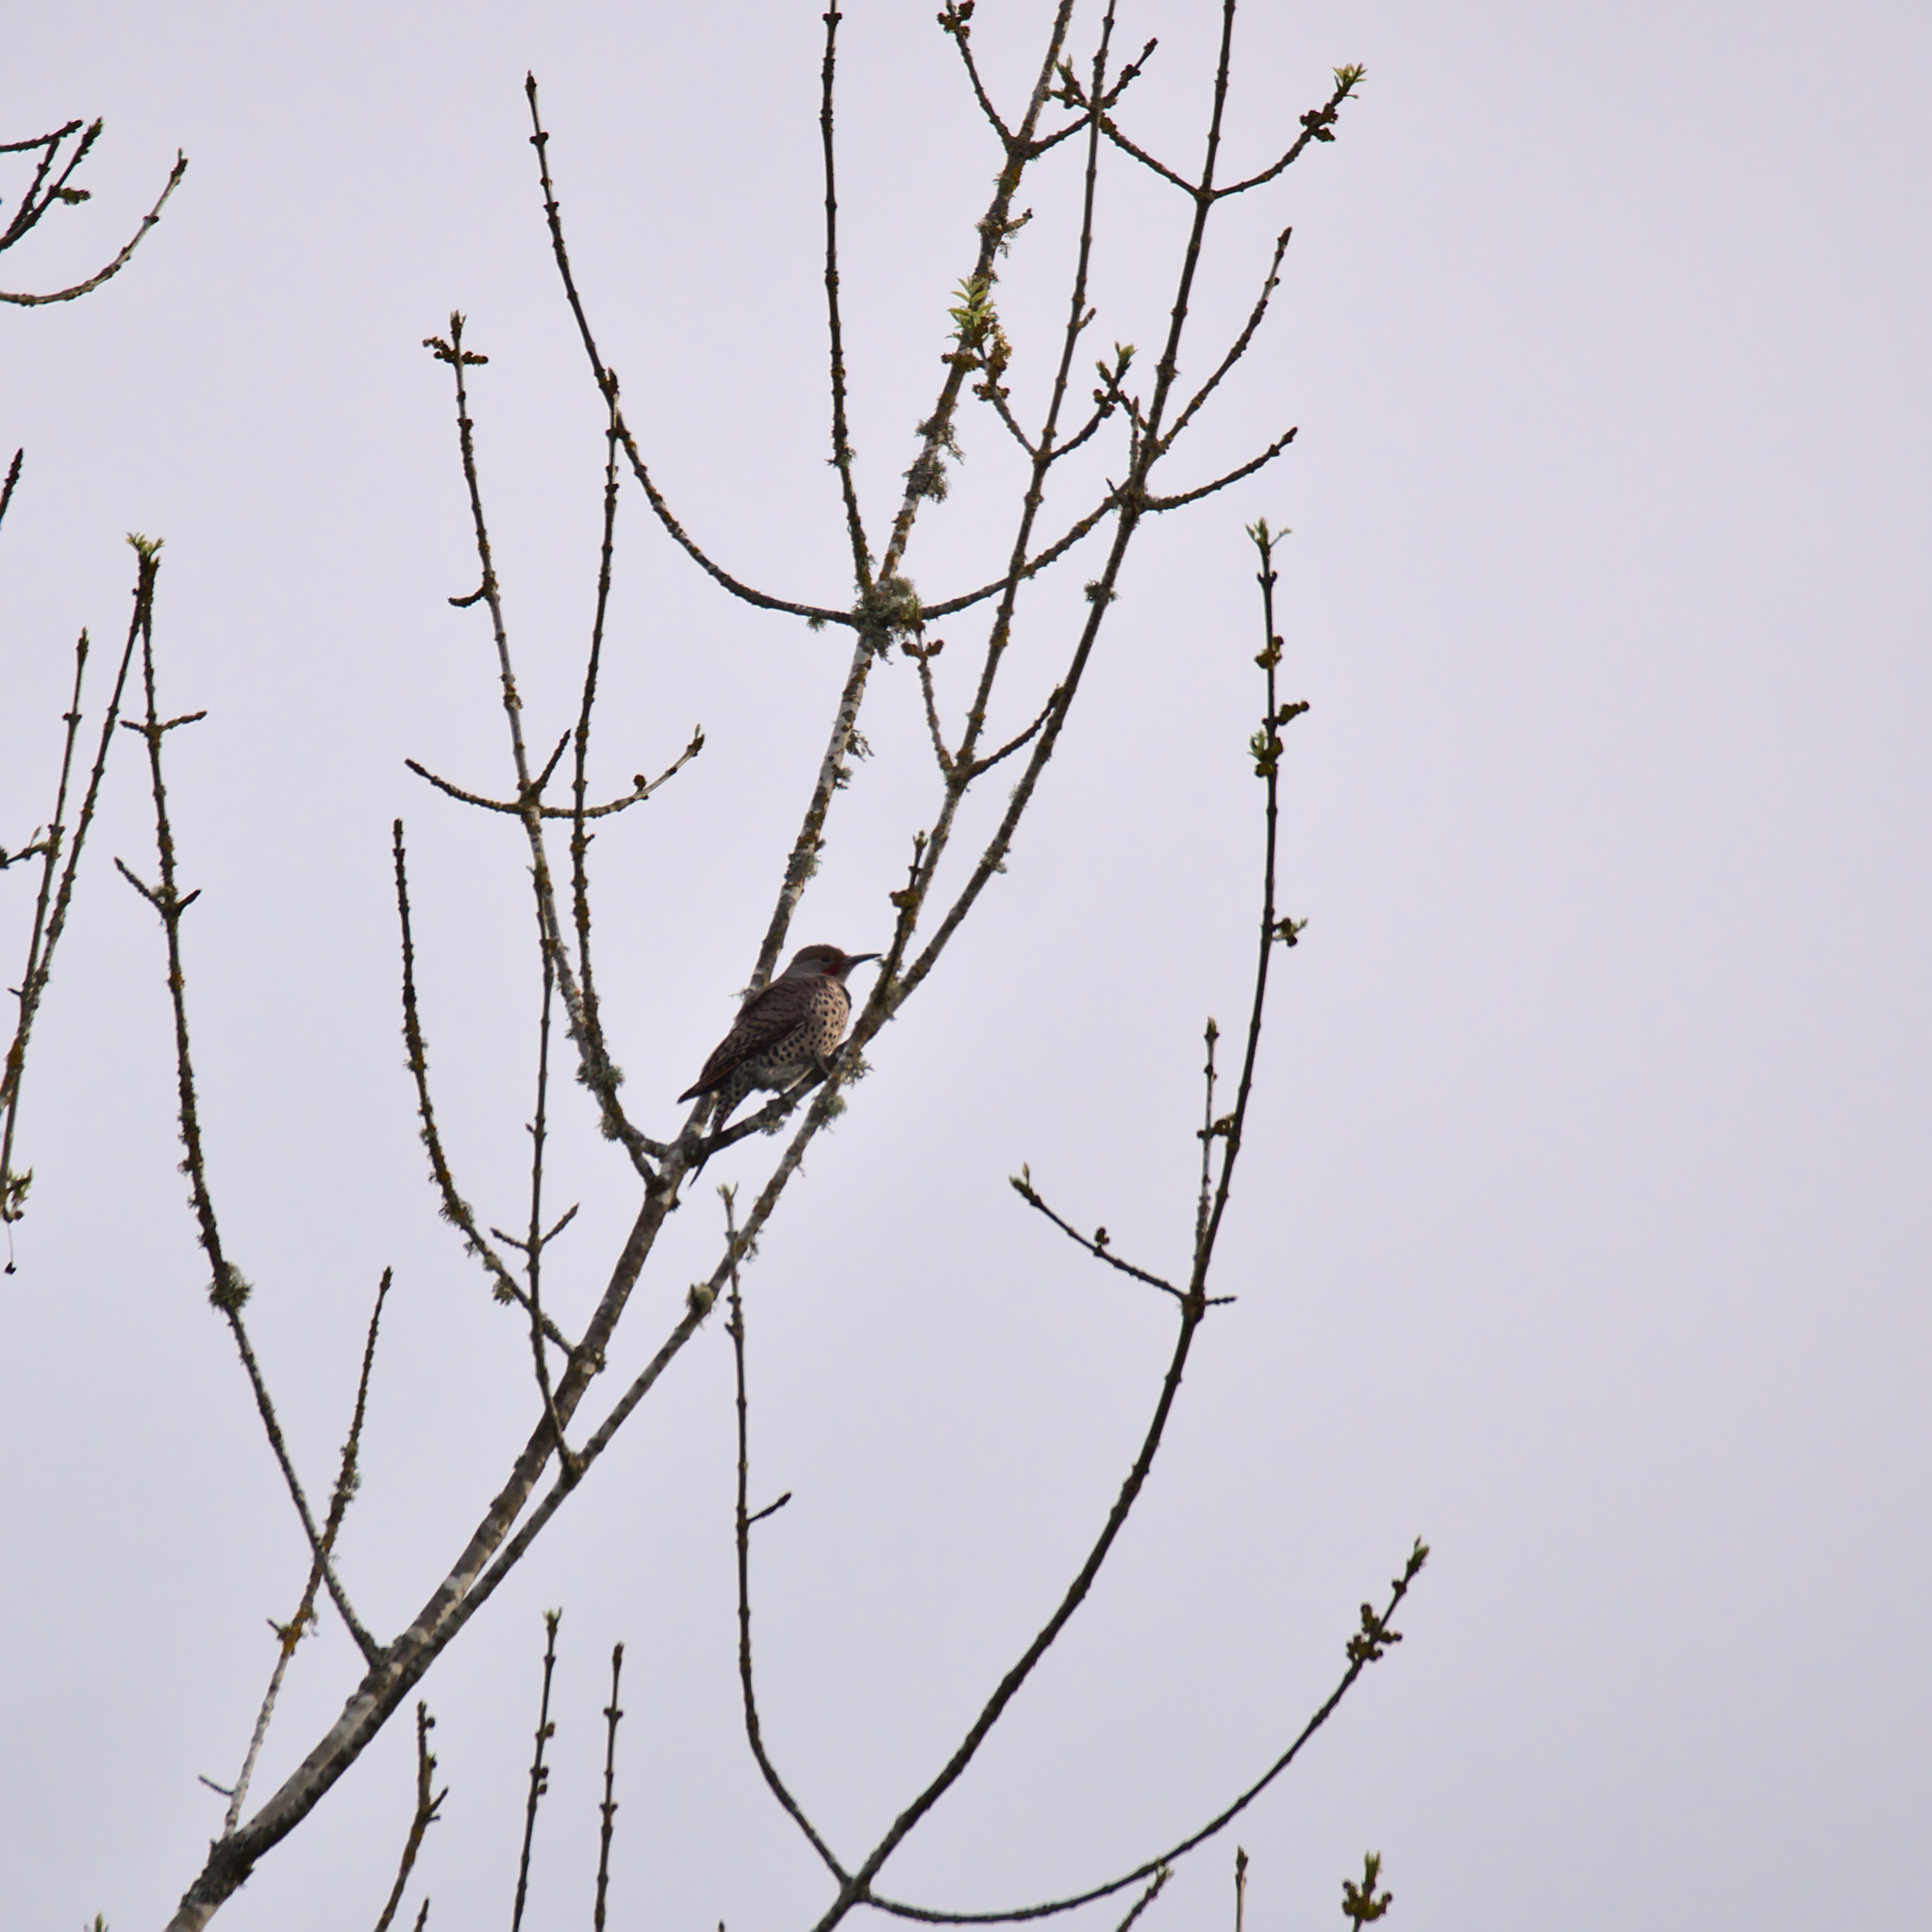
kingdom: Animalia
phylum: Chordata
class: Aves
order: Piciformes
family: Picidae
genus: Colaptes
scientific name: Colaptes auratus
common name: Northern flicker
